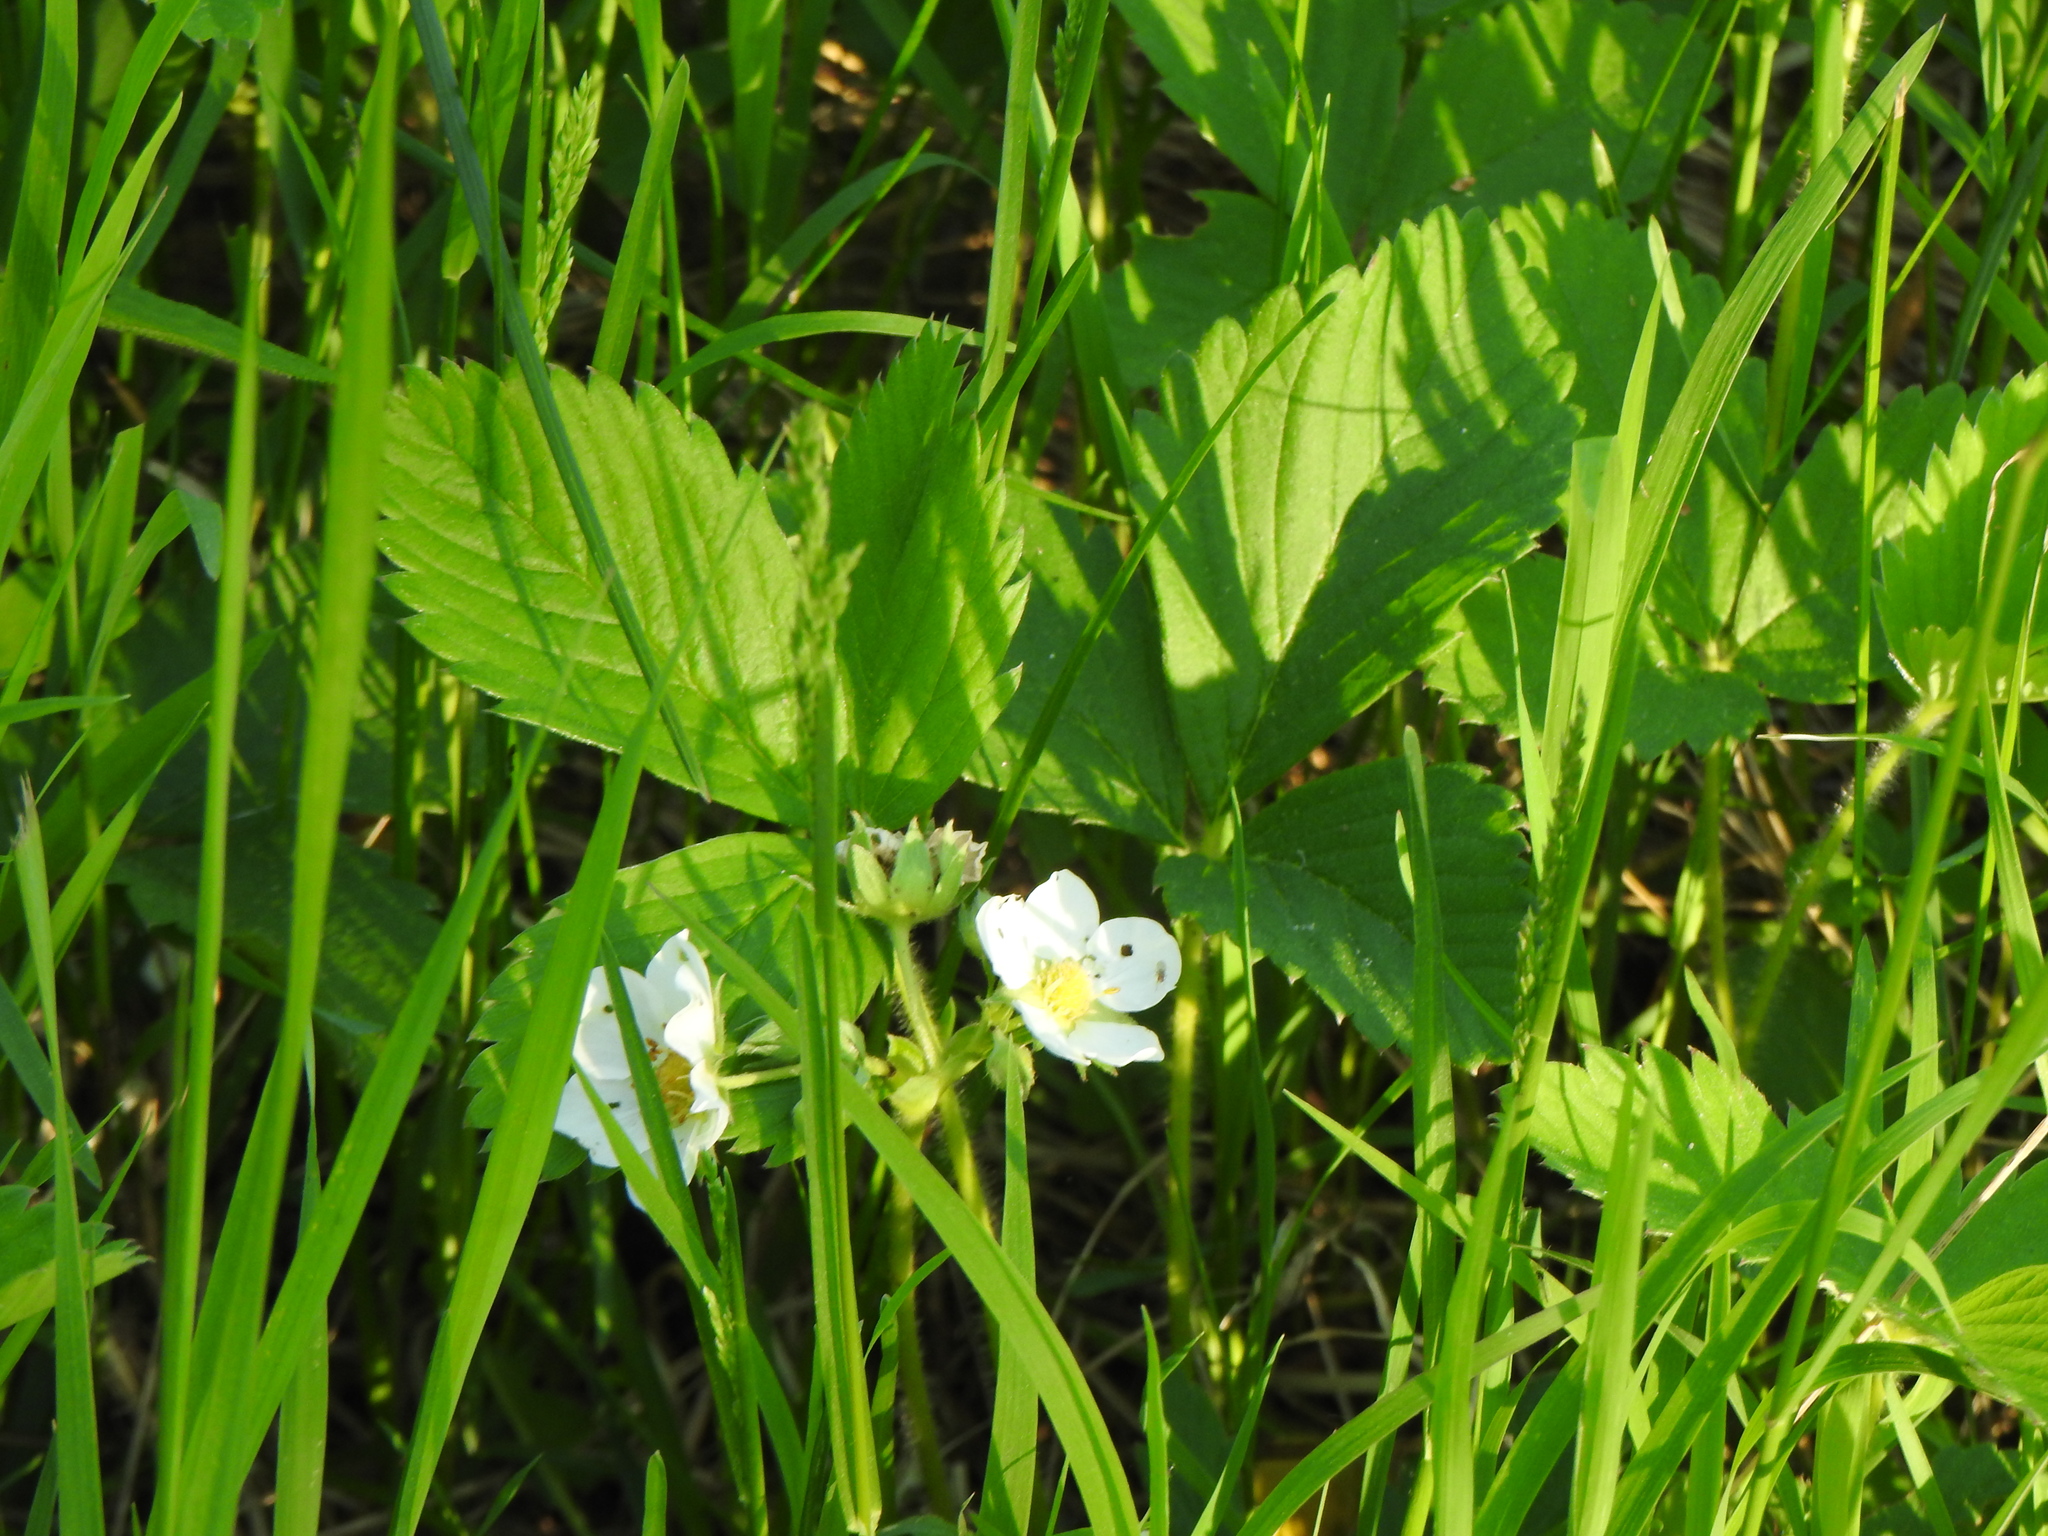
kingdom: Plantae
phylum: Tracheophyta
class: Magnoliopsida
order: Rosales
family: Rosaceae
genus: Fragaria
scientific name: Fragaria virginiana
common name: Thickleaved wild strawberry
